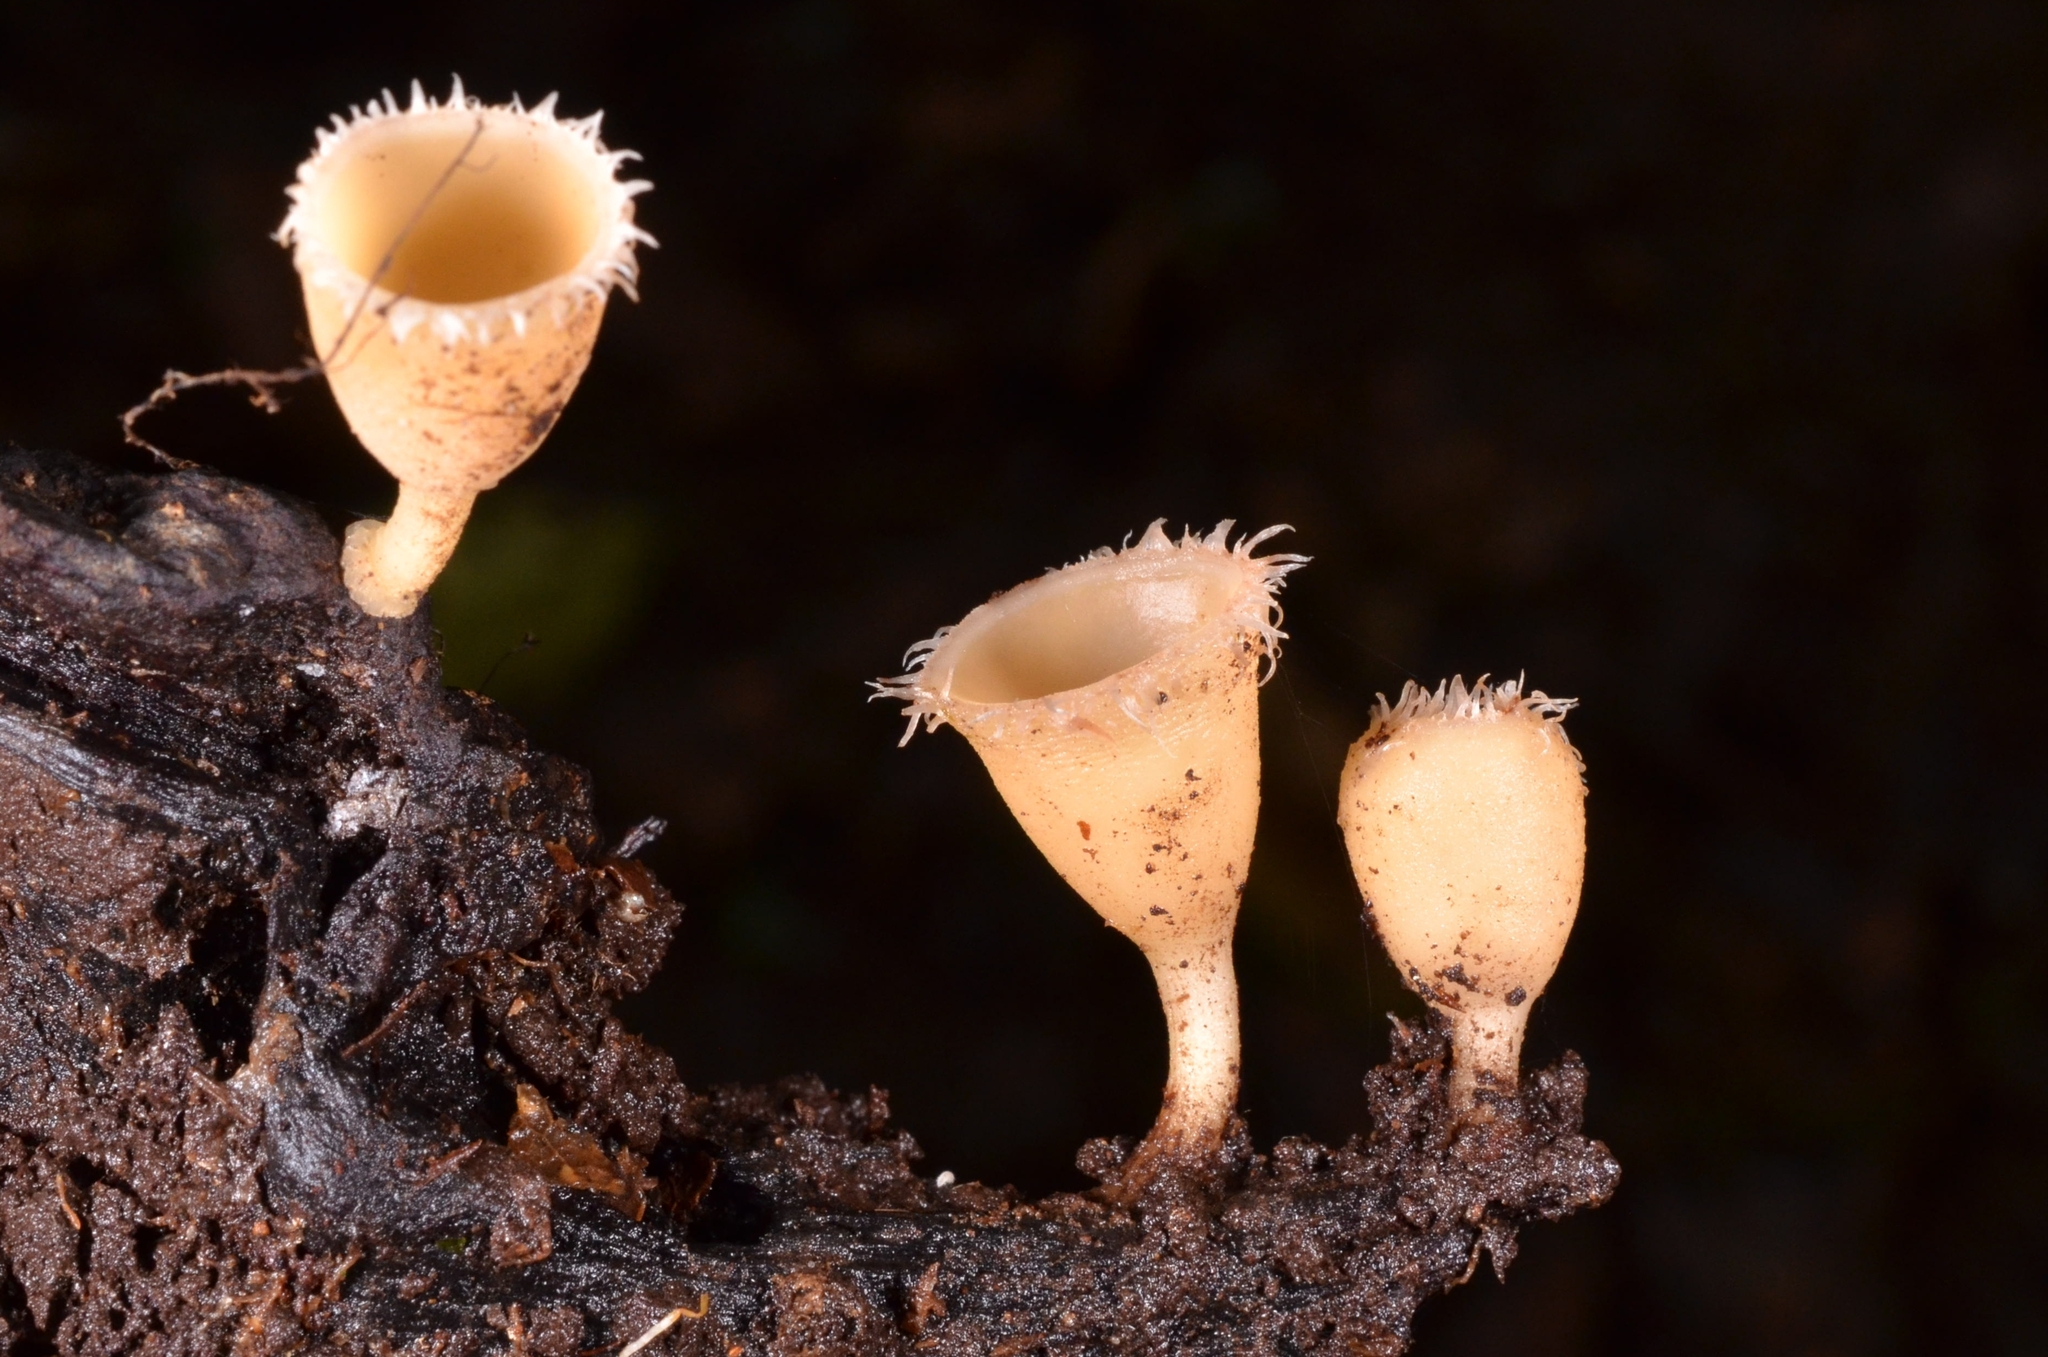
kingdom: Fungi
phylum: Ascomycota
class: Pezizomycetes
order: Pezizales
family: Sarcoscyphaceae
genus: Cookeina
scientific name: Cookeina insititia
